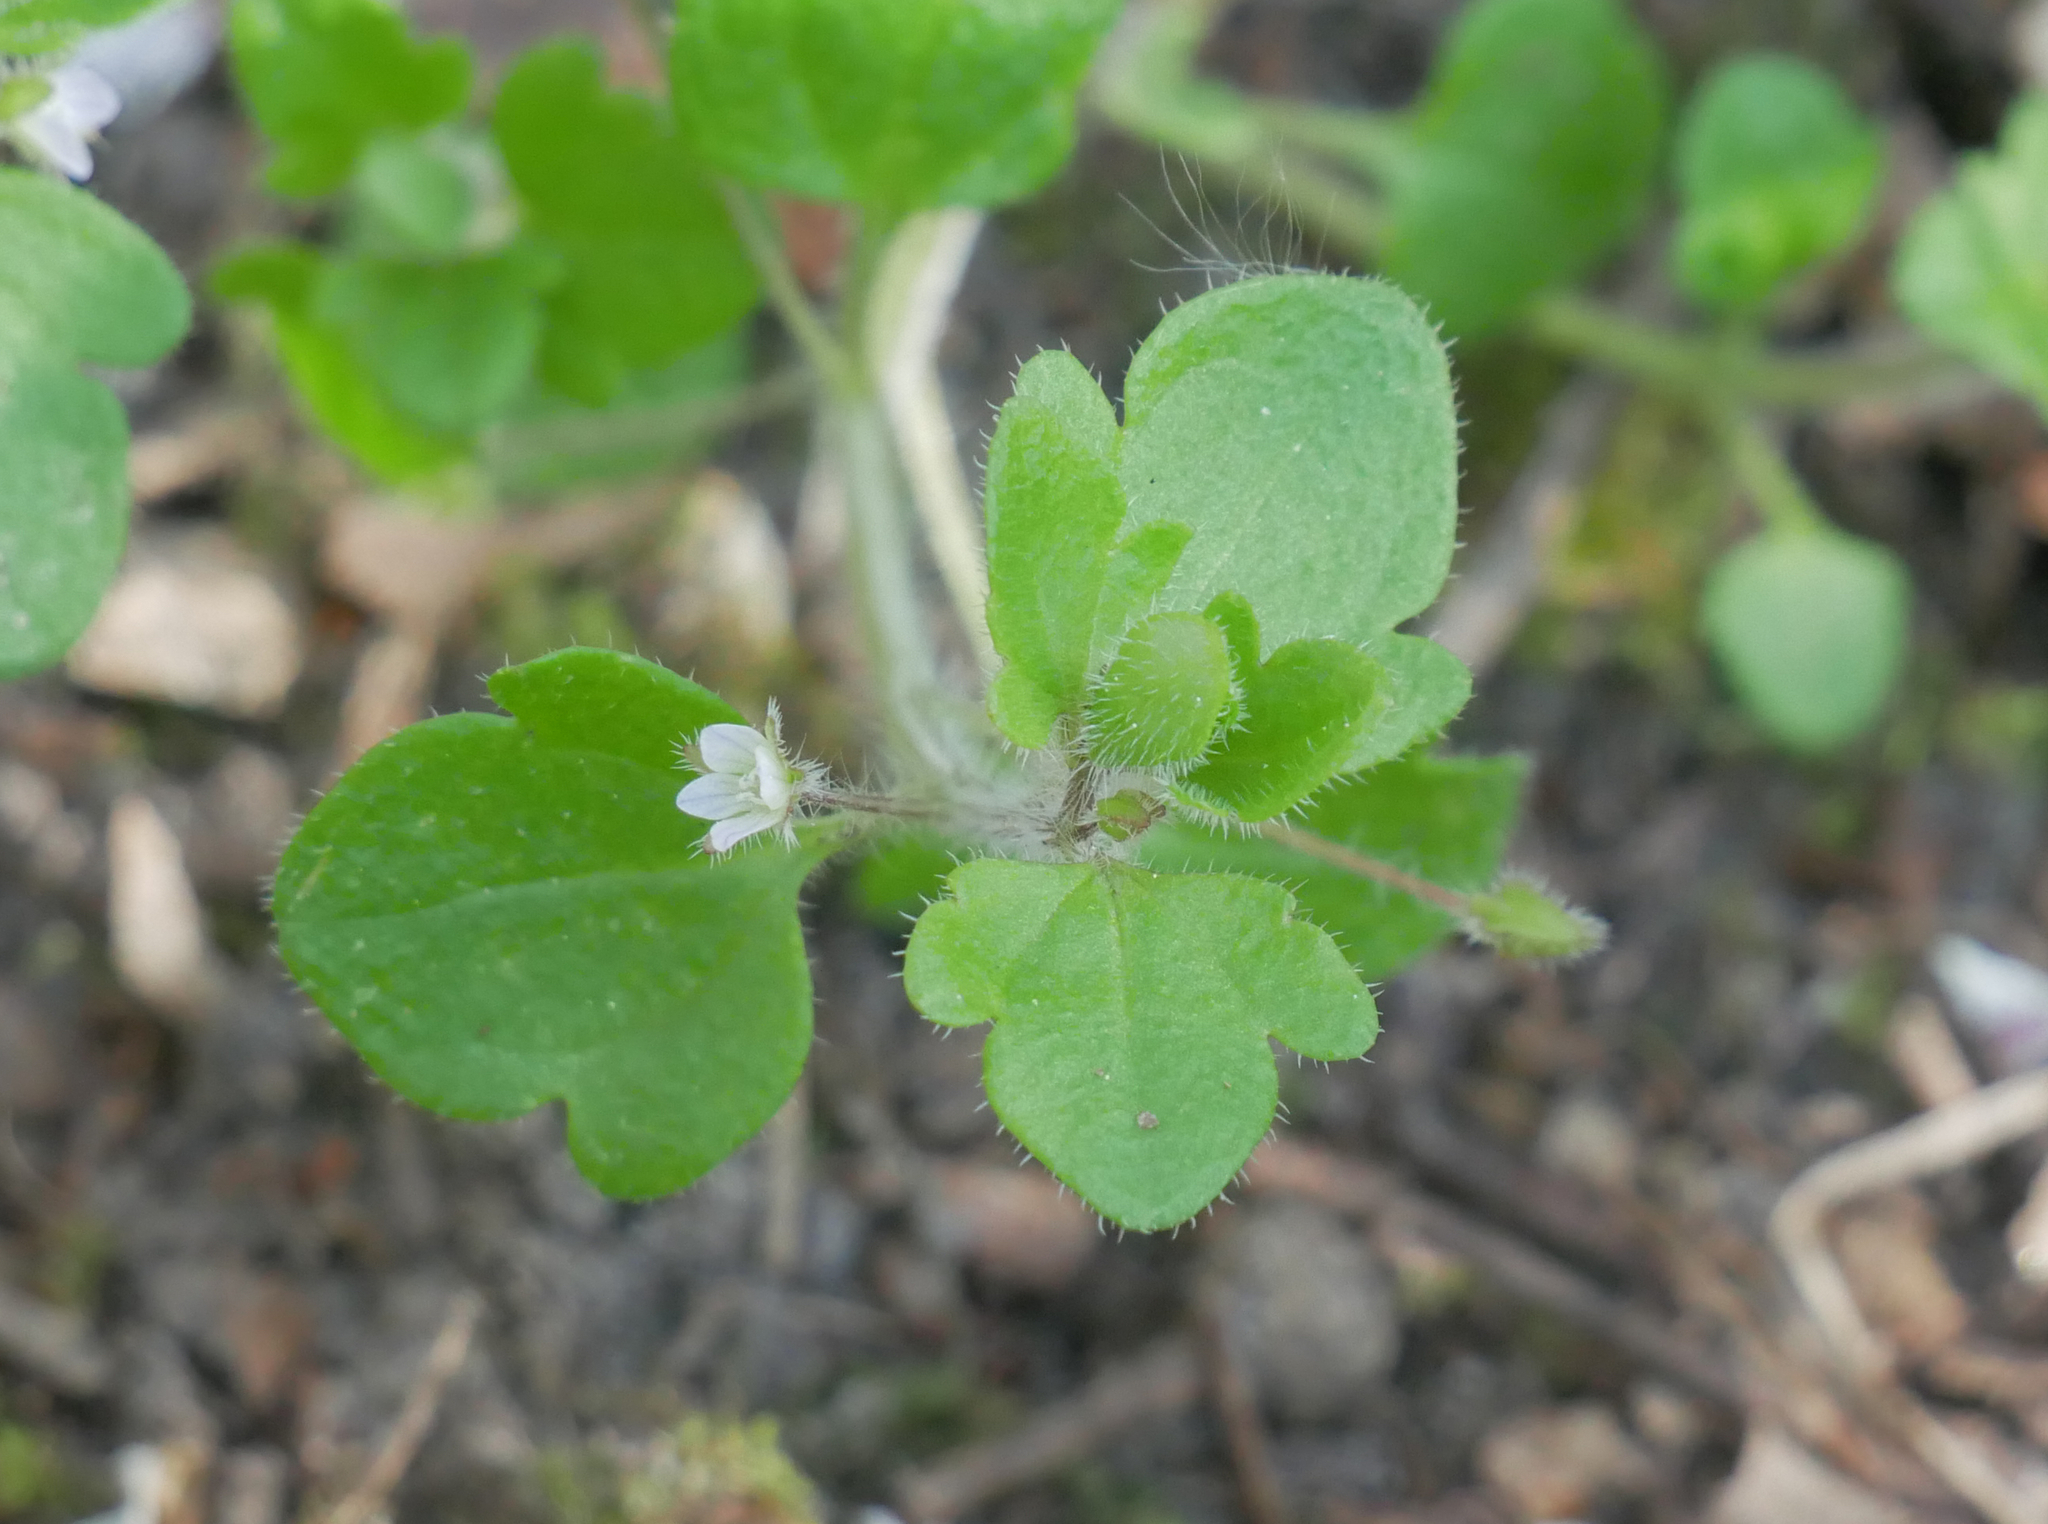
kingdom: Plantae
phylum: Tracheophyta
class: Magnoliopsida
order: Lamiales
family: Plantaginaceae
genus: Veronica
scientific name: Veronica sublobata
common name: False ivy-leaved speedwell
